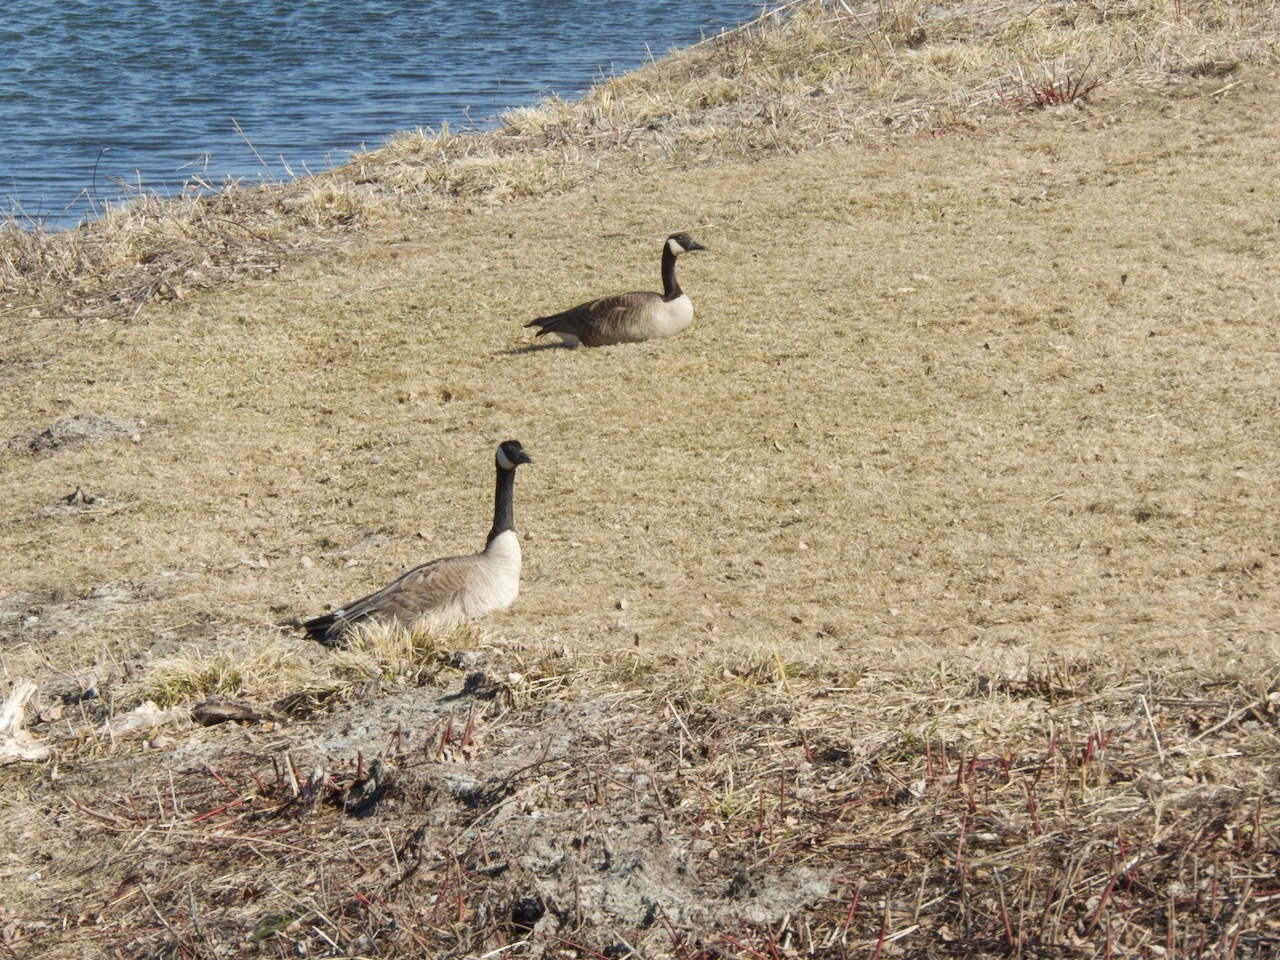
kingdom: Animalia
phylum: Chordata
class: Aves
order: Anseriformes
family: Anatidae
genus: Branta
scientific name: Branta canadensis
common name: Canada goose
